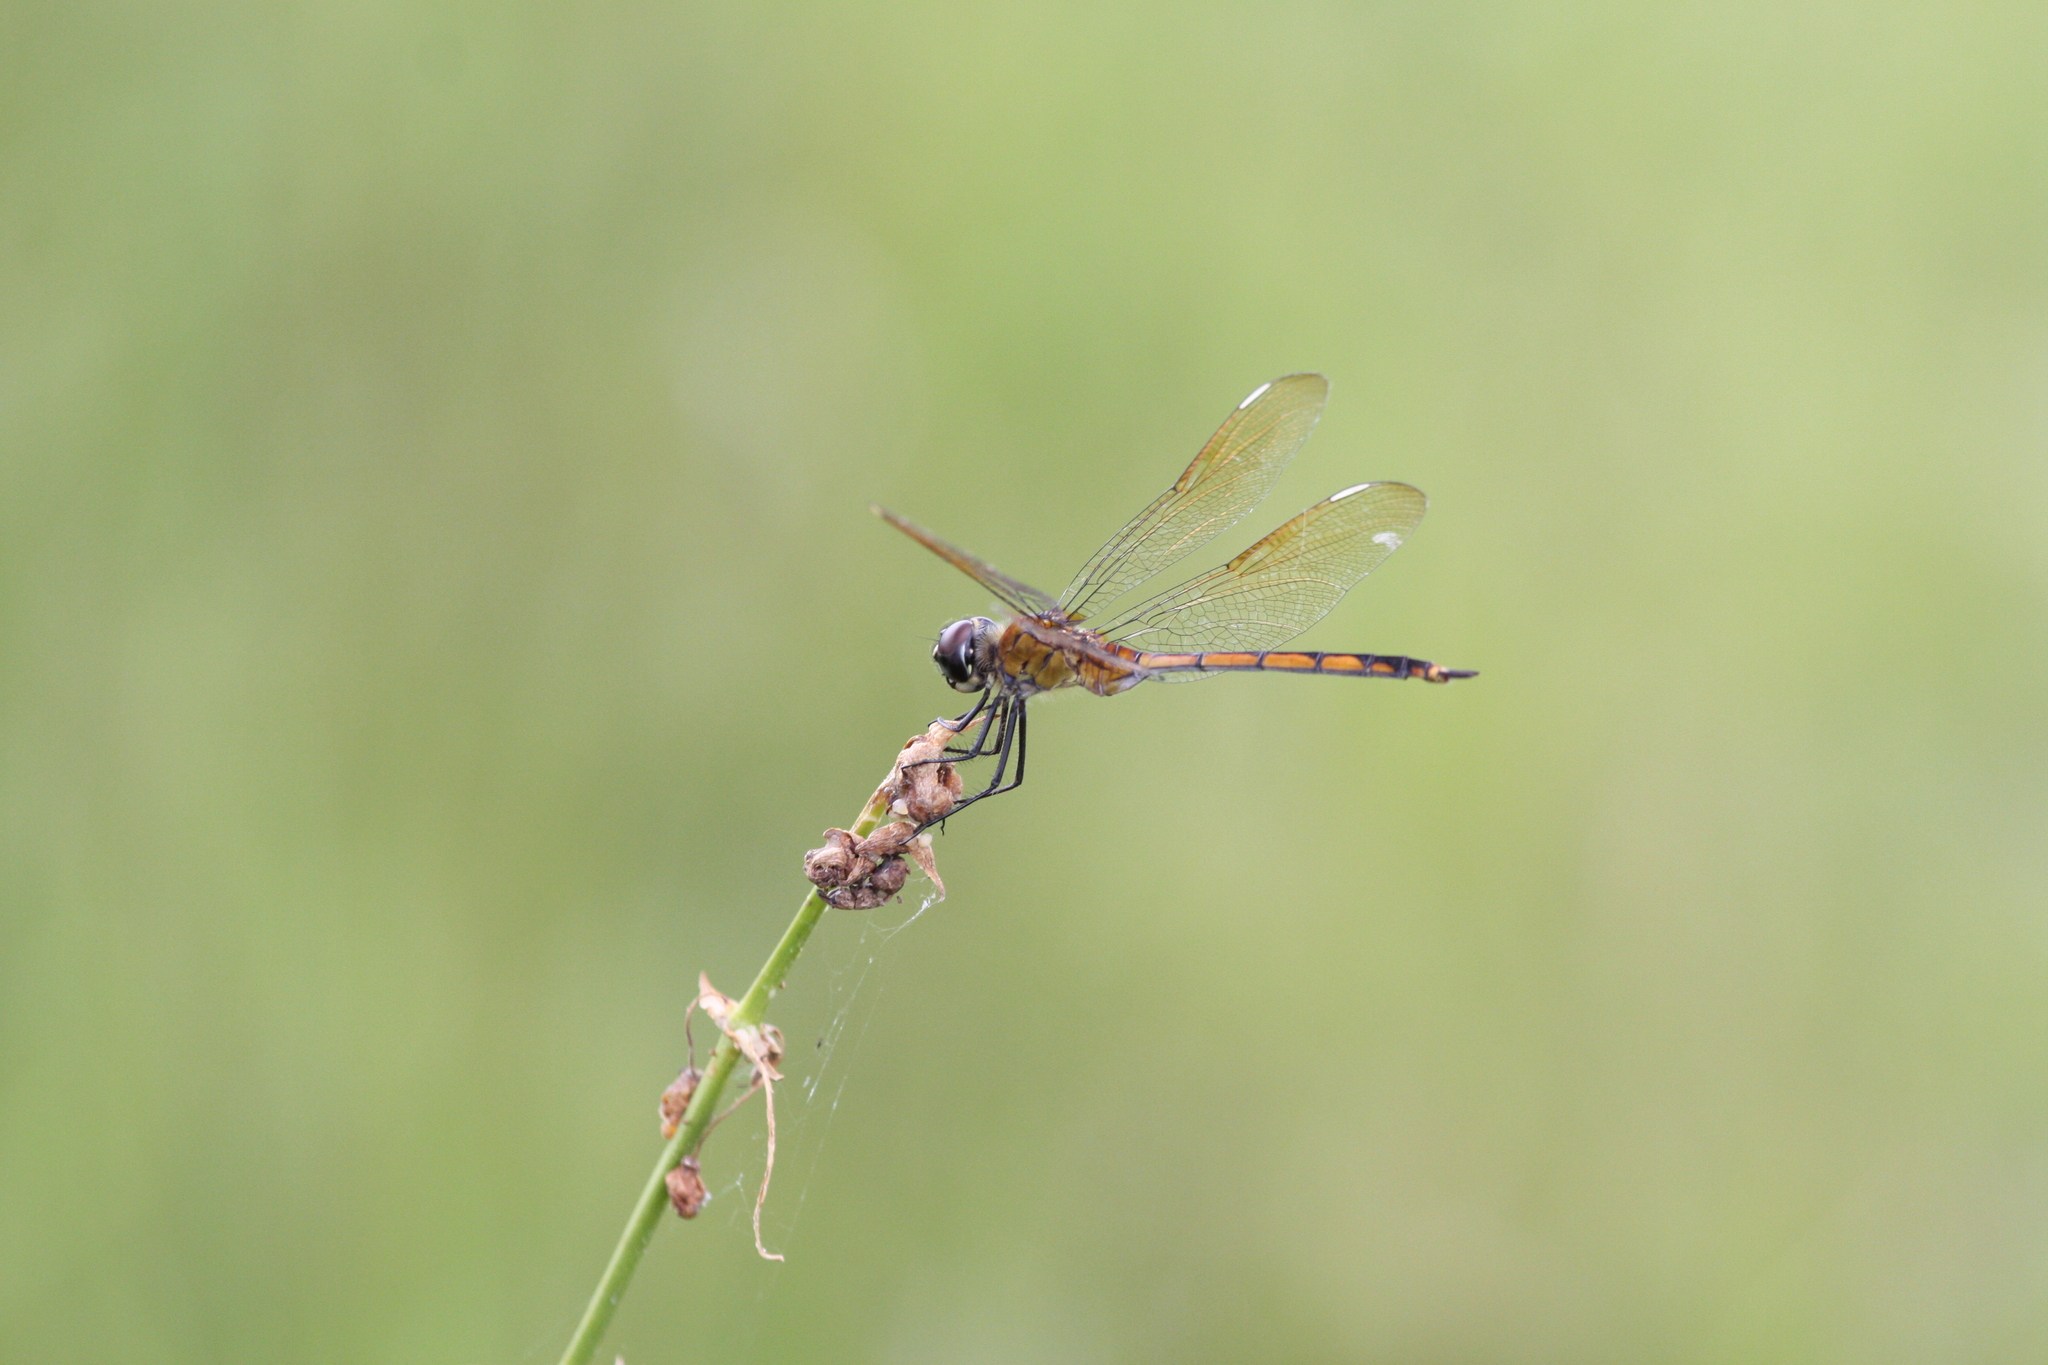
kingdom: Animalia
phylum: Arthropoda
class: Insecta
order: Odonata
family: Libellulidae
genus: Brachymesia
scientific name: Brachymesia gravida
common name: Four-spotted pennant
